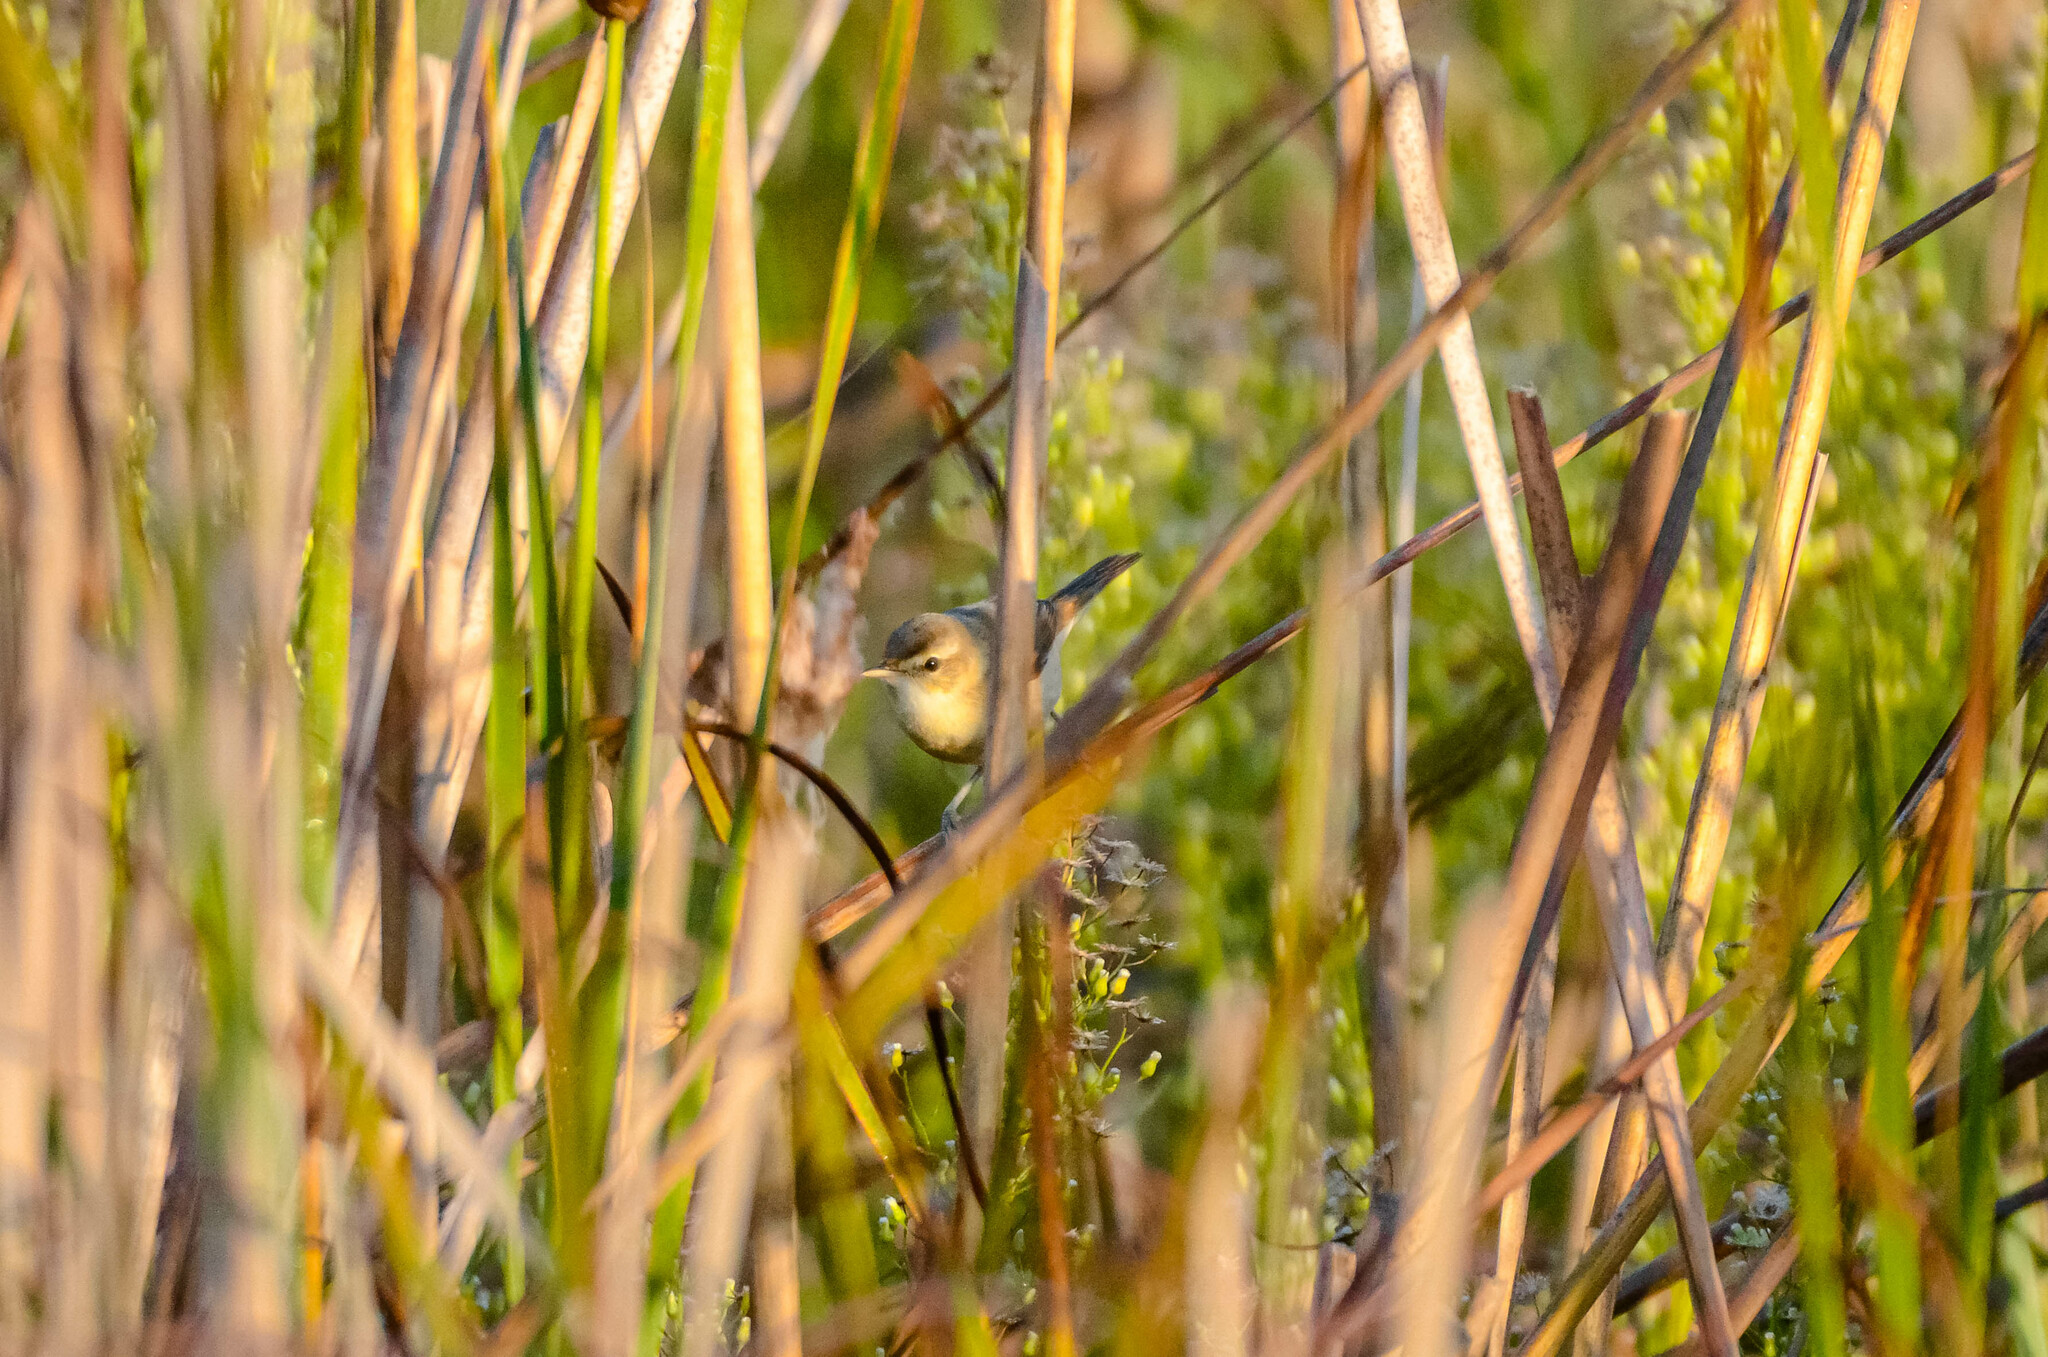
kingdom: Animalia
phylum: Chordata
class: Aves
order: Passeriformes
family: Acrocephalidae
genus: Acrocephalus
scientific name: Acrocephalus agricola
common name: Paddyfield warbler
